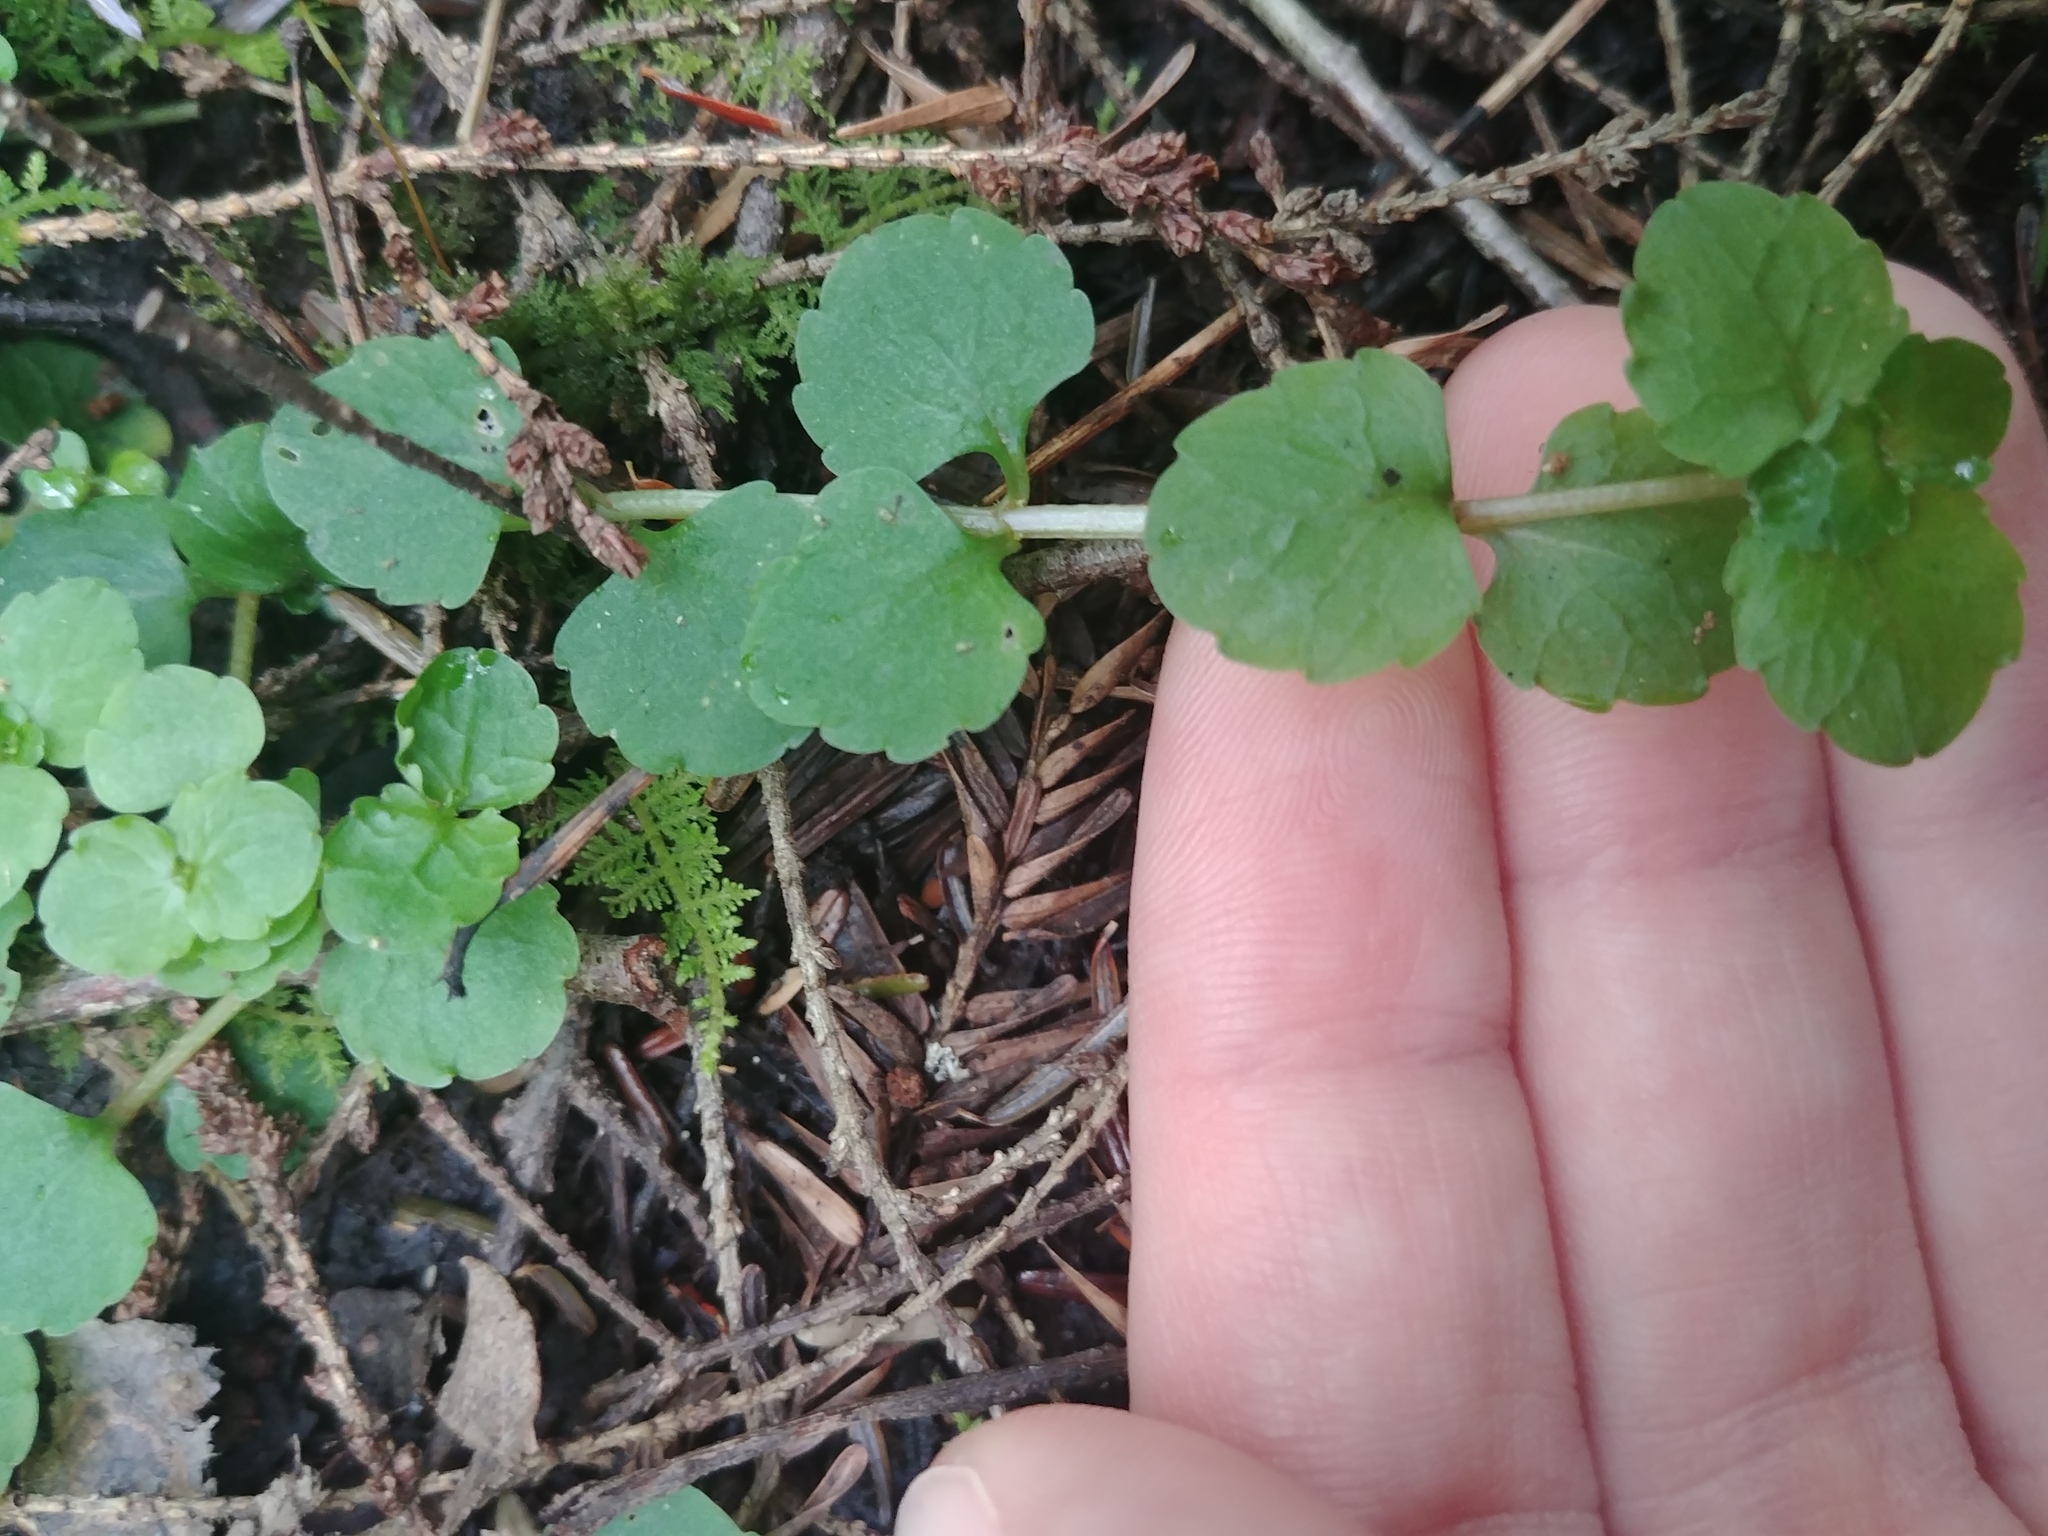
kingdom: Plantae
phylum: Tracheophyta
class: Magnoliopsida
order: Saxifragales
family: Saxifragaceae
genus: Chrysosplenium
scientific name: Chrysosplenium americanum
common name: American golden-saxifrage
